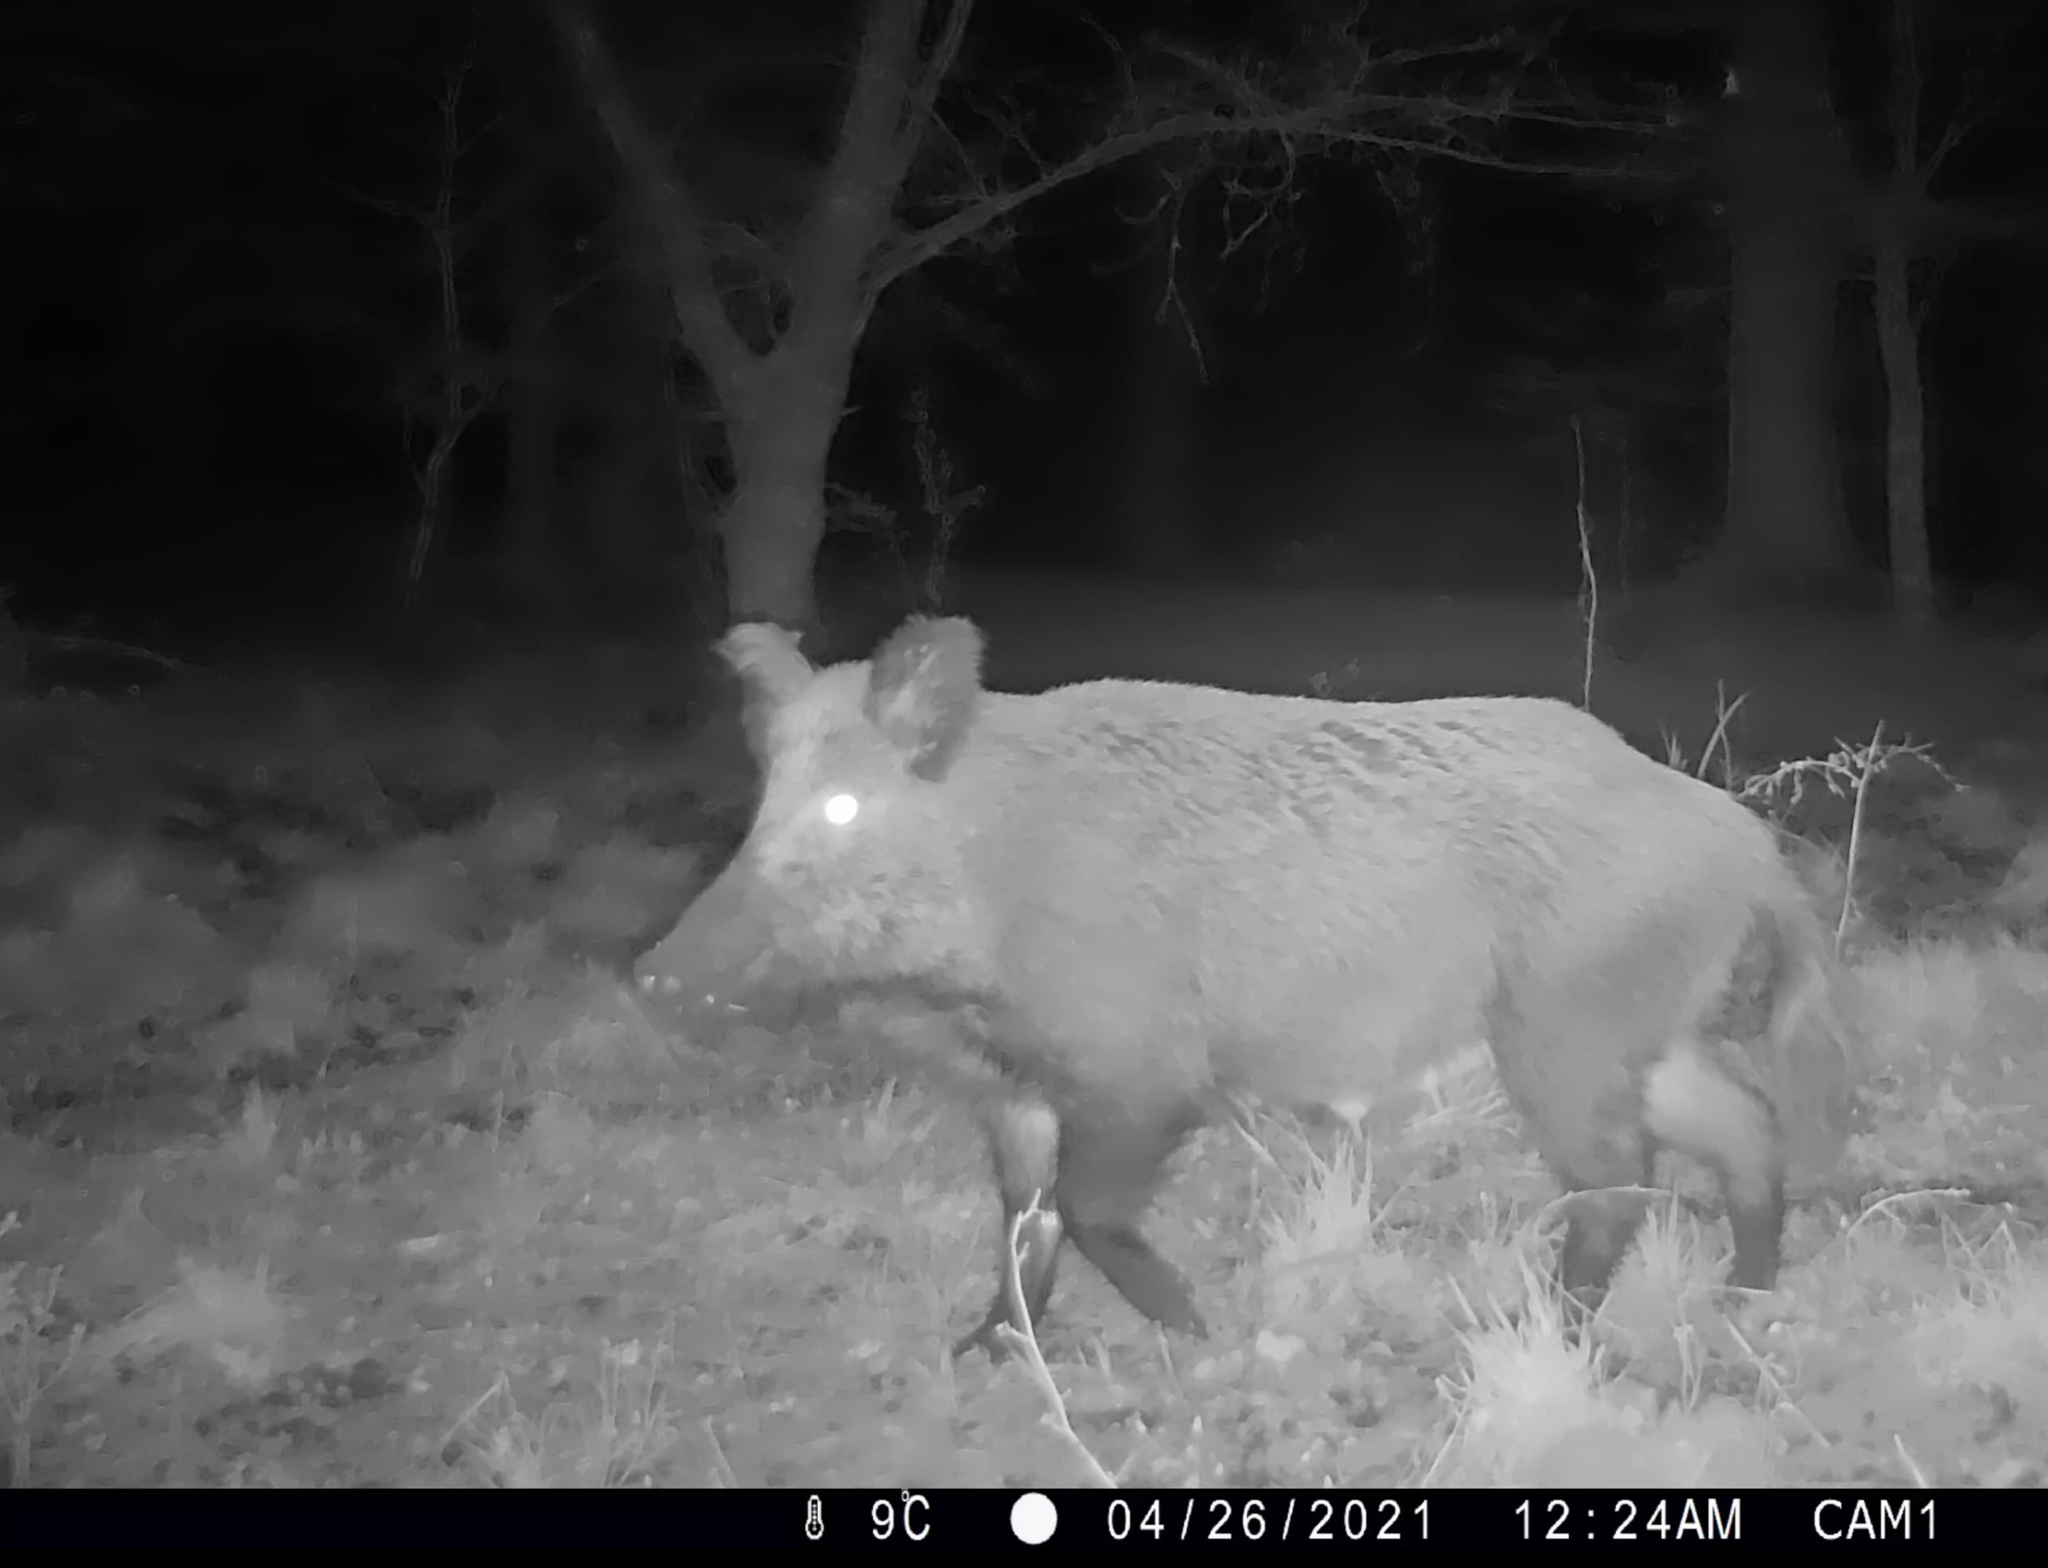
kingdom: Animalia
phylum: Chordata
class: Mammalia
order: Artiodactyla
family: Suidae
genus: Sus
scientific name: Sus scrofa
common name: Wild boar
